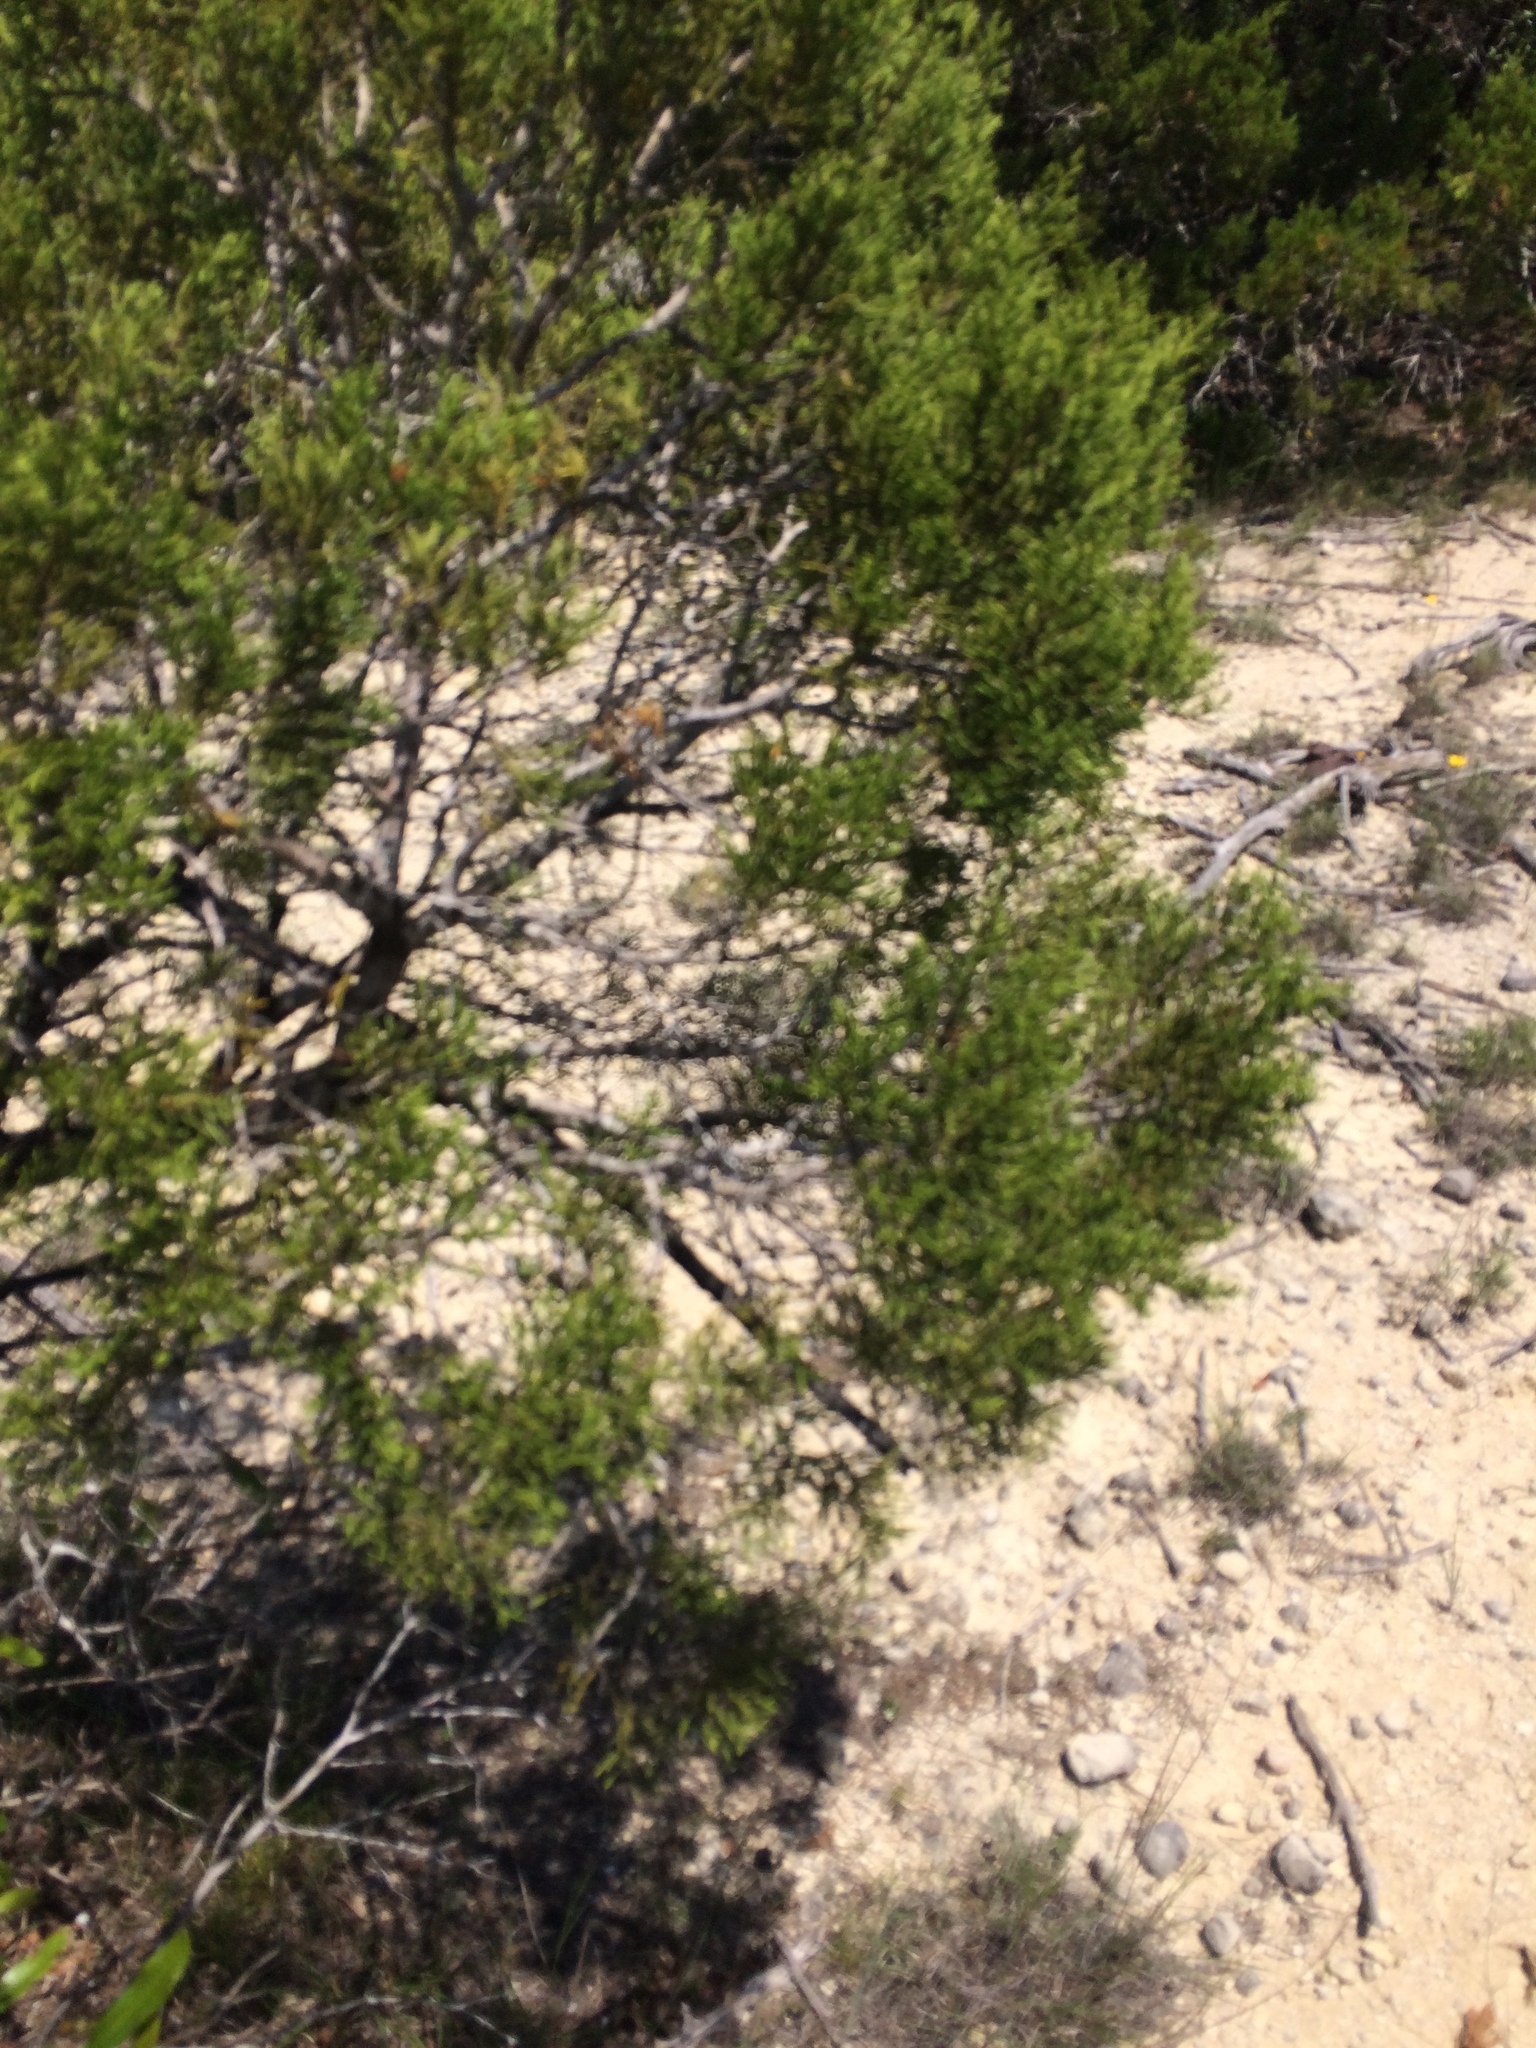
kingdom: Plantae
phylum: Tracheophyta
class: Pinopsida
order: Pinales
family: Cupressaceae
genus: Juniperus
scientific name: Juniperus ashei
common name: Mexican juniper
